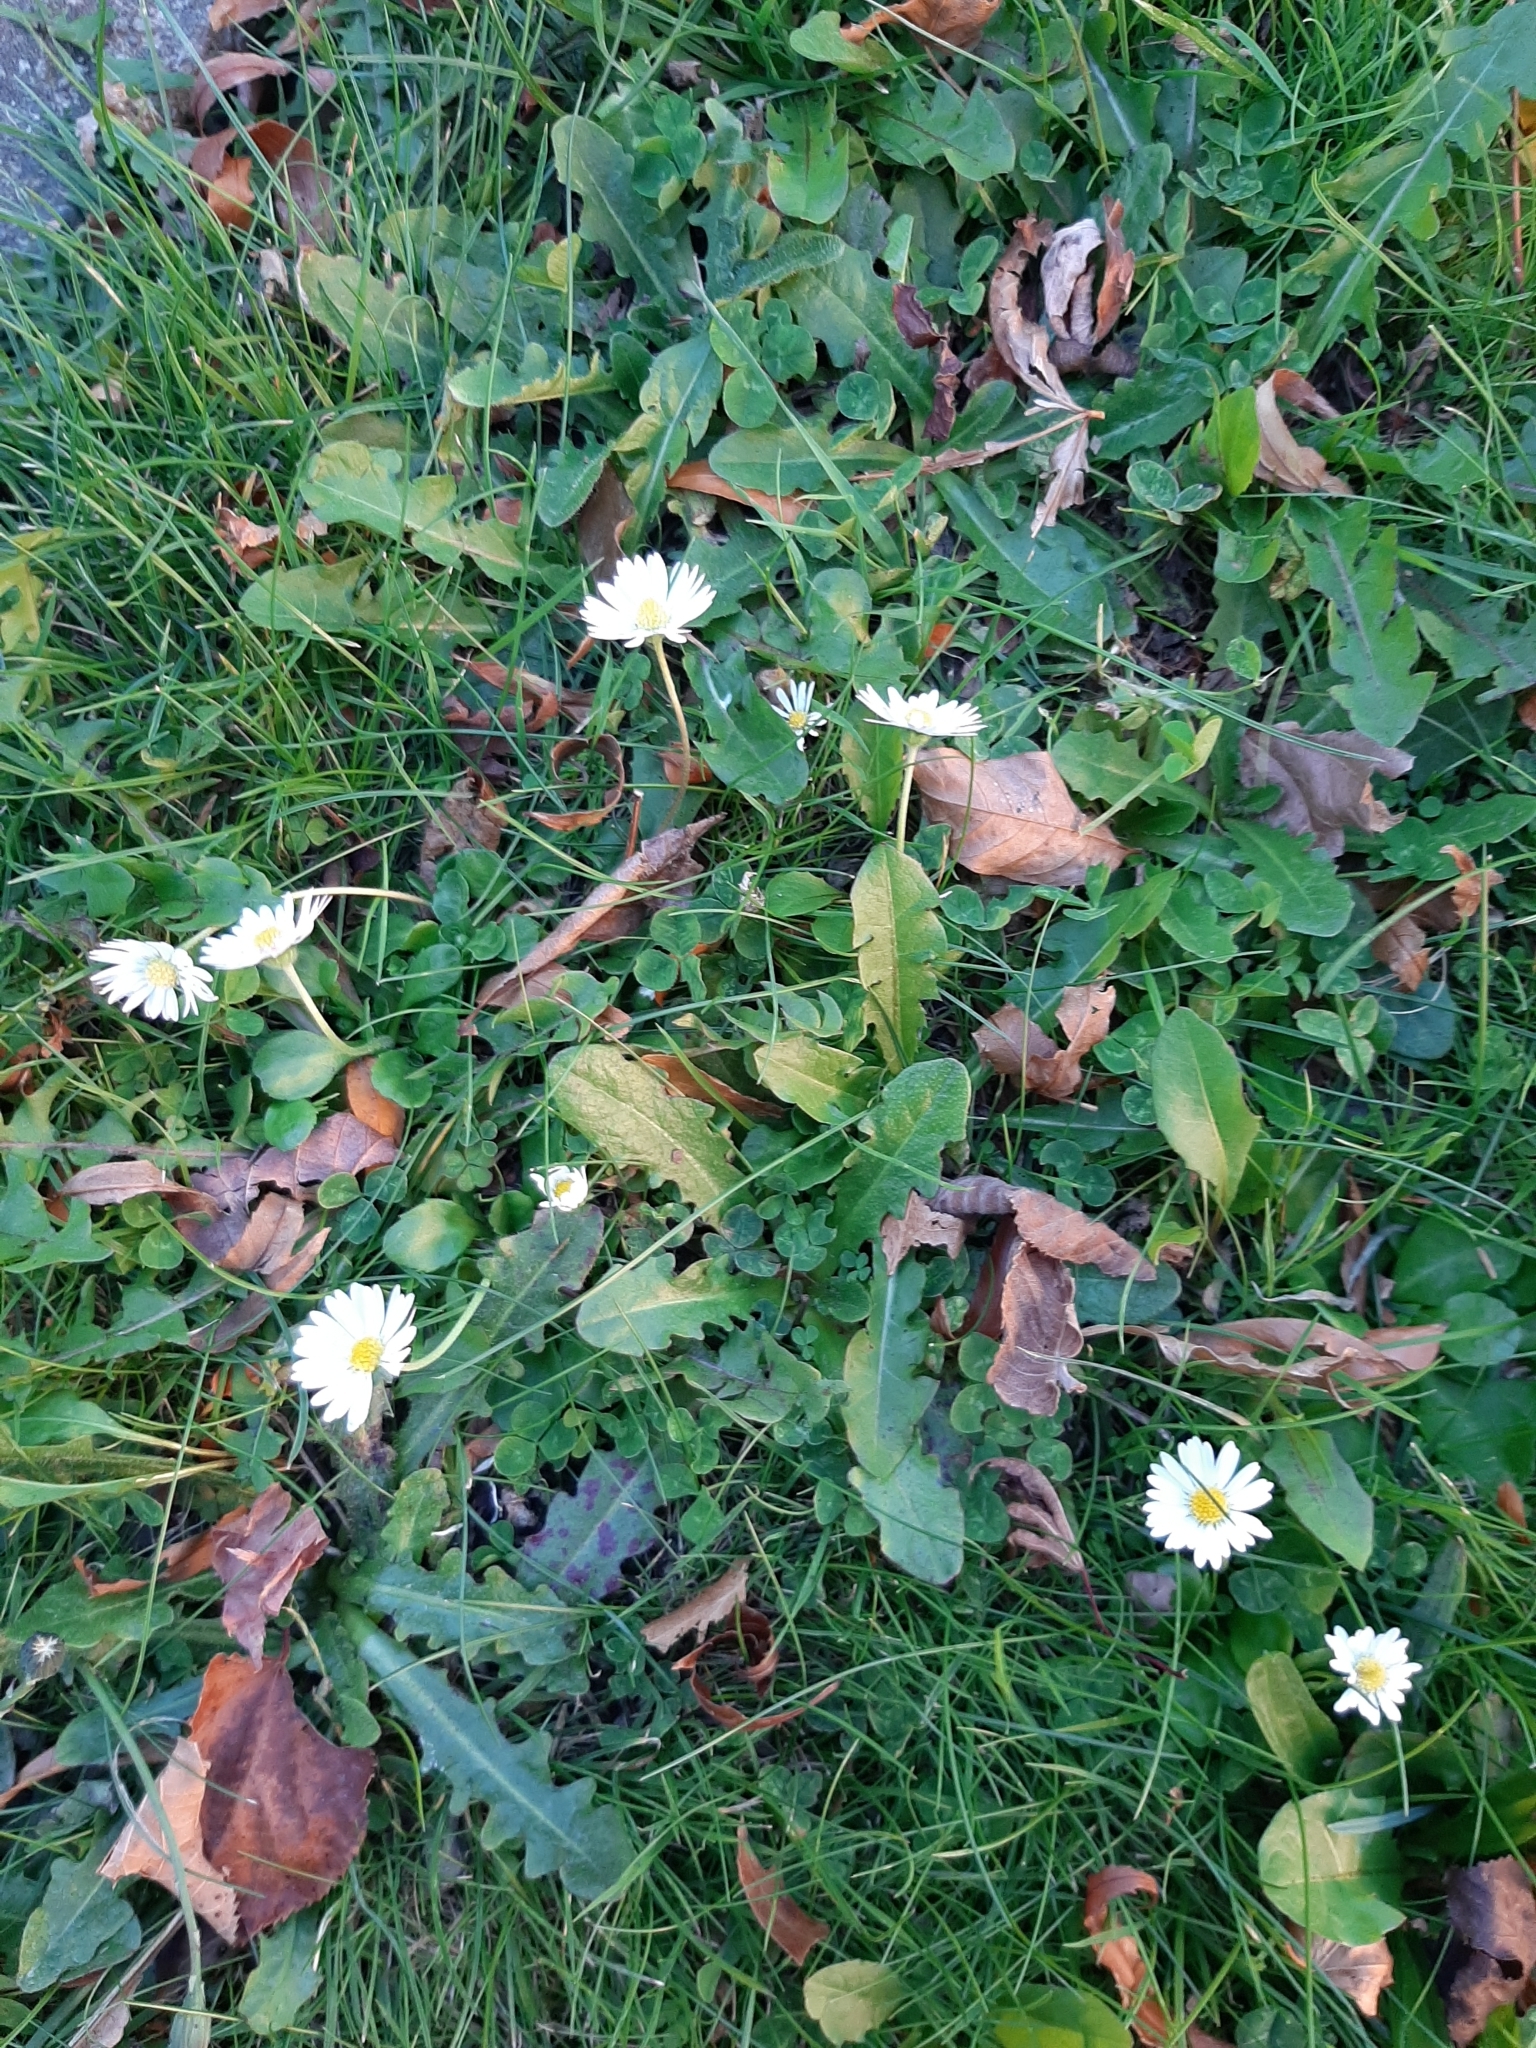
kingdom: Plantae
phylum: Tracheophyta
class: Magnoliopsida
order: Asterales
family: Asteraceae
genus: Bellis
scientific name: Bellis perennis
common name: Lawndaisy
